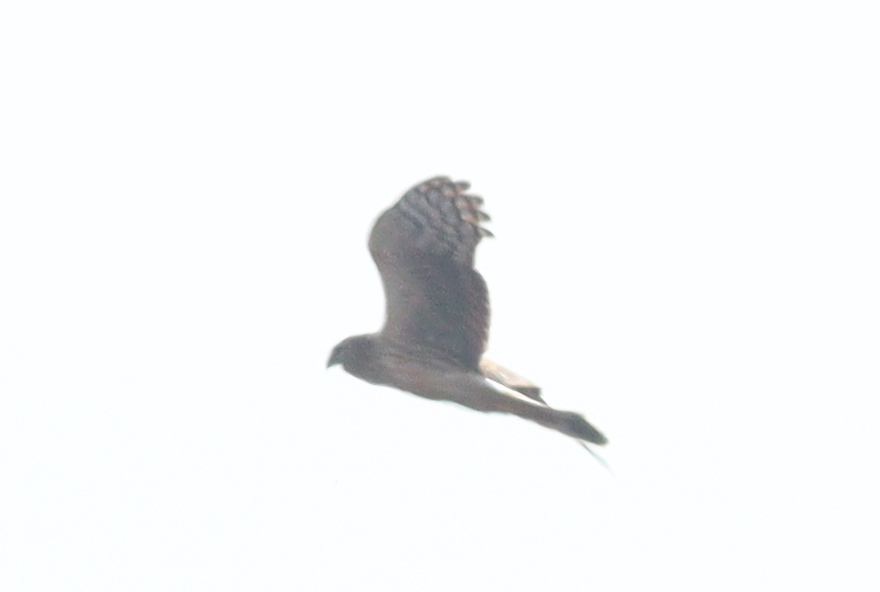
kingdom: Animalia
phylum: Chordata
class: Aves
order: Accipitriformes
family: Accipitridae
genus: Circus
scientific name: Circus cyaneus
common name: Hen harrier
